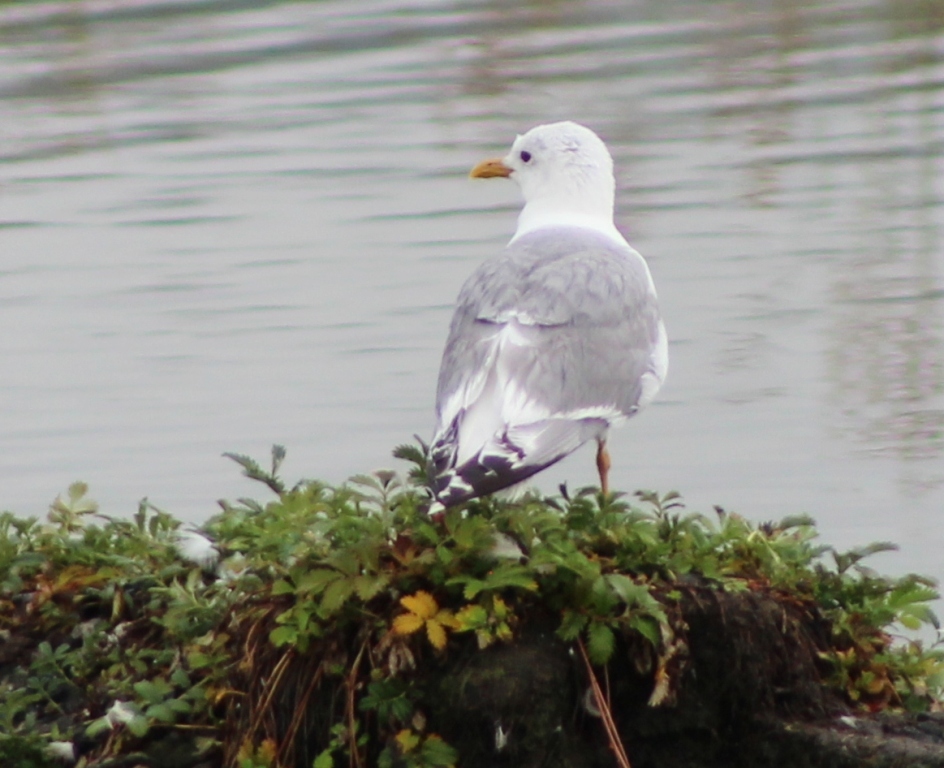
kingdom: Animalia
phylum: Chordata
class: Aves
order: Charadriiformes
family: Laridae
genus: Larus
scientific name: Larus brachyrhynchus
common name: Short-billed gull
